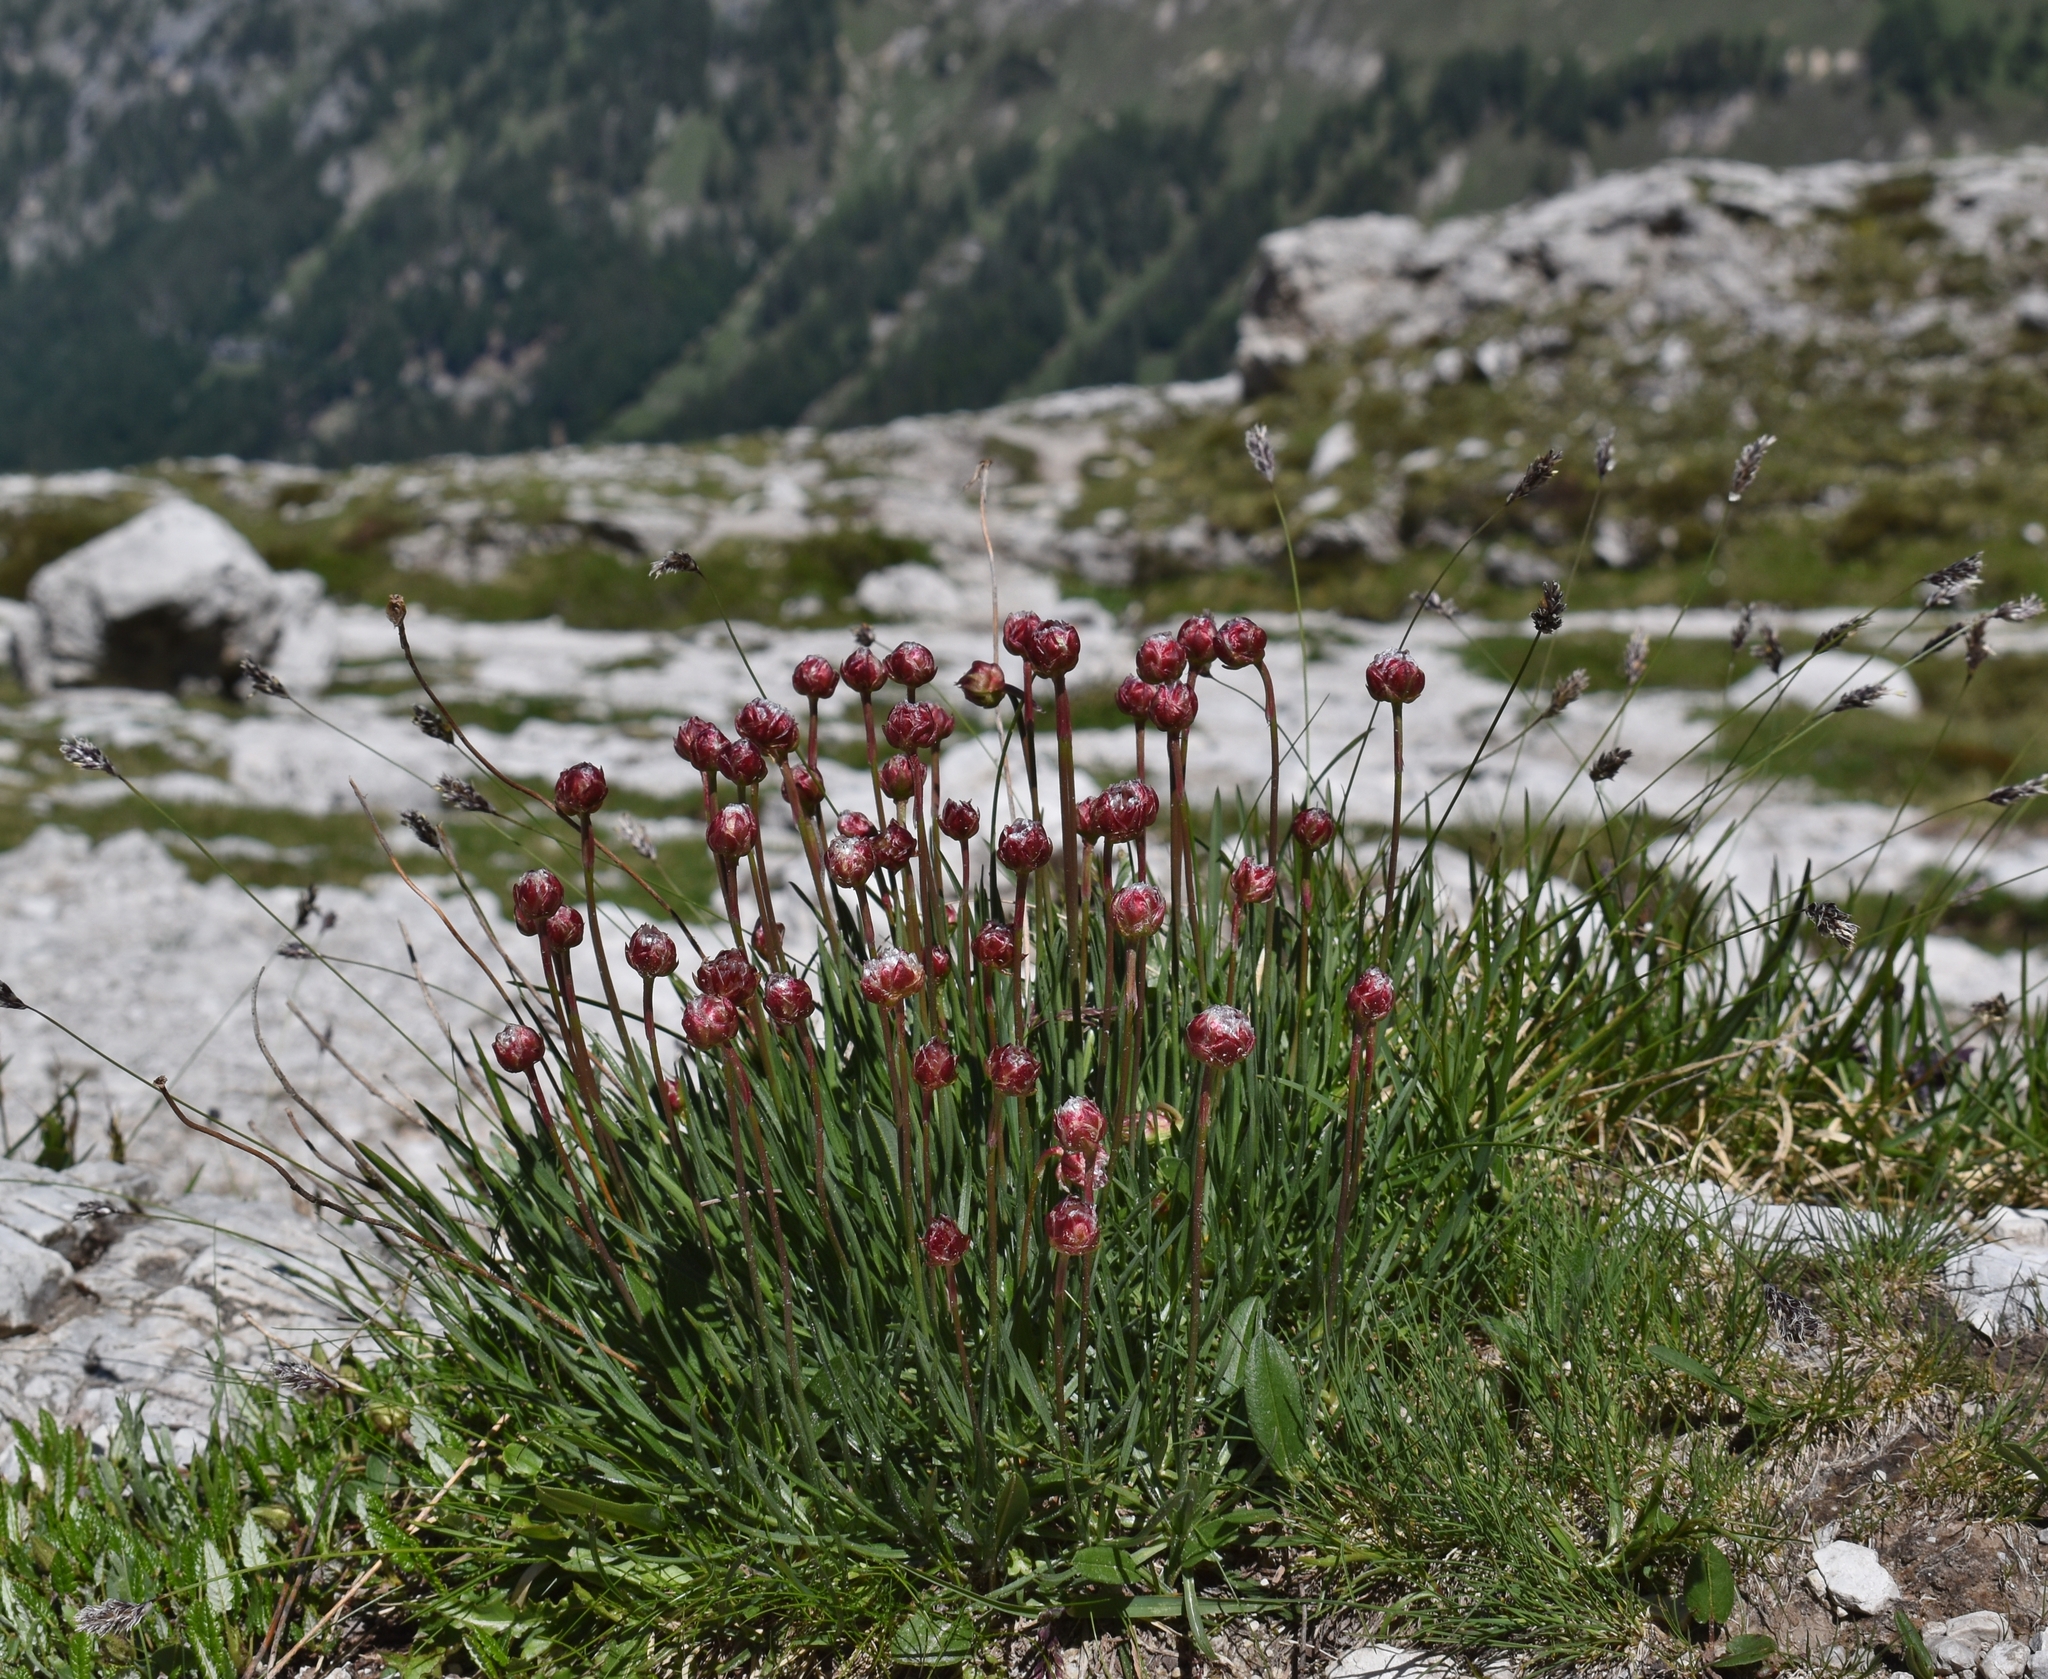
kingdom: Plantae
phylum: Tracheophyta
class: Magnoliopsida
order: Caryophyllales
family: Plumbaginaceae
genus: Armeria
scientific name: Armeria alpina
